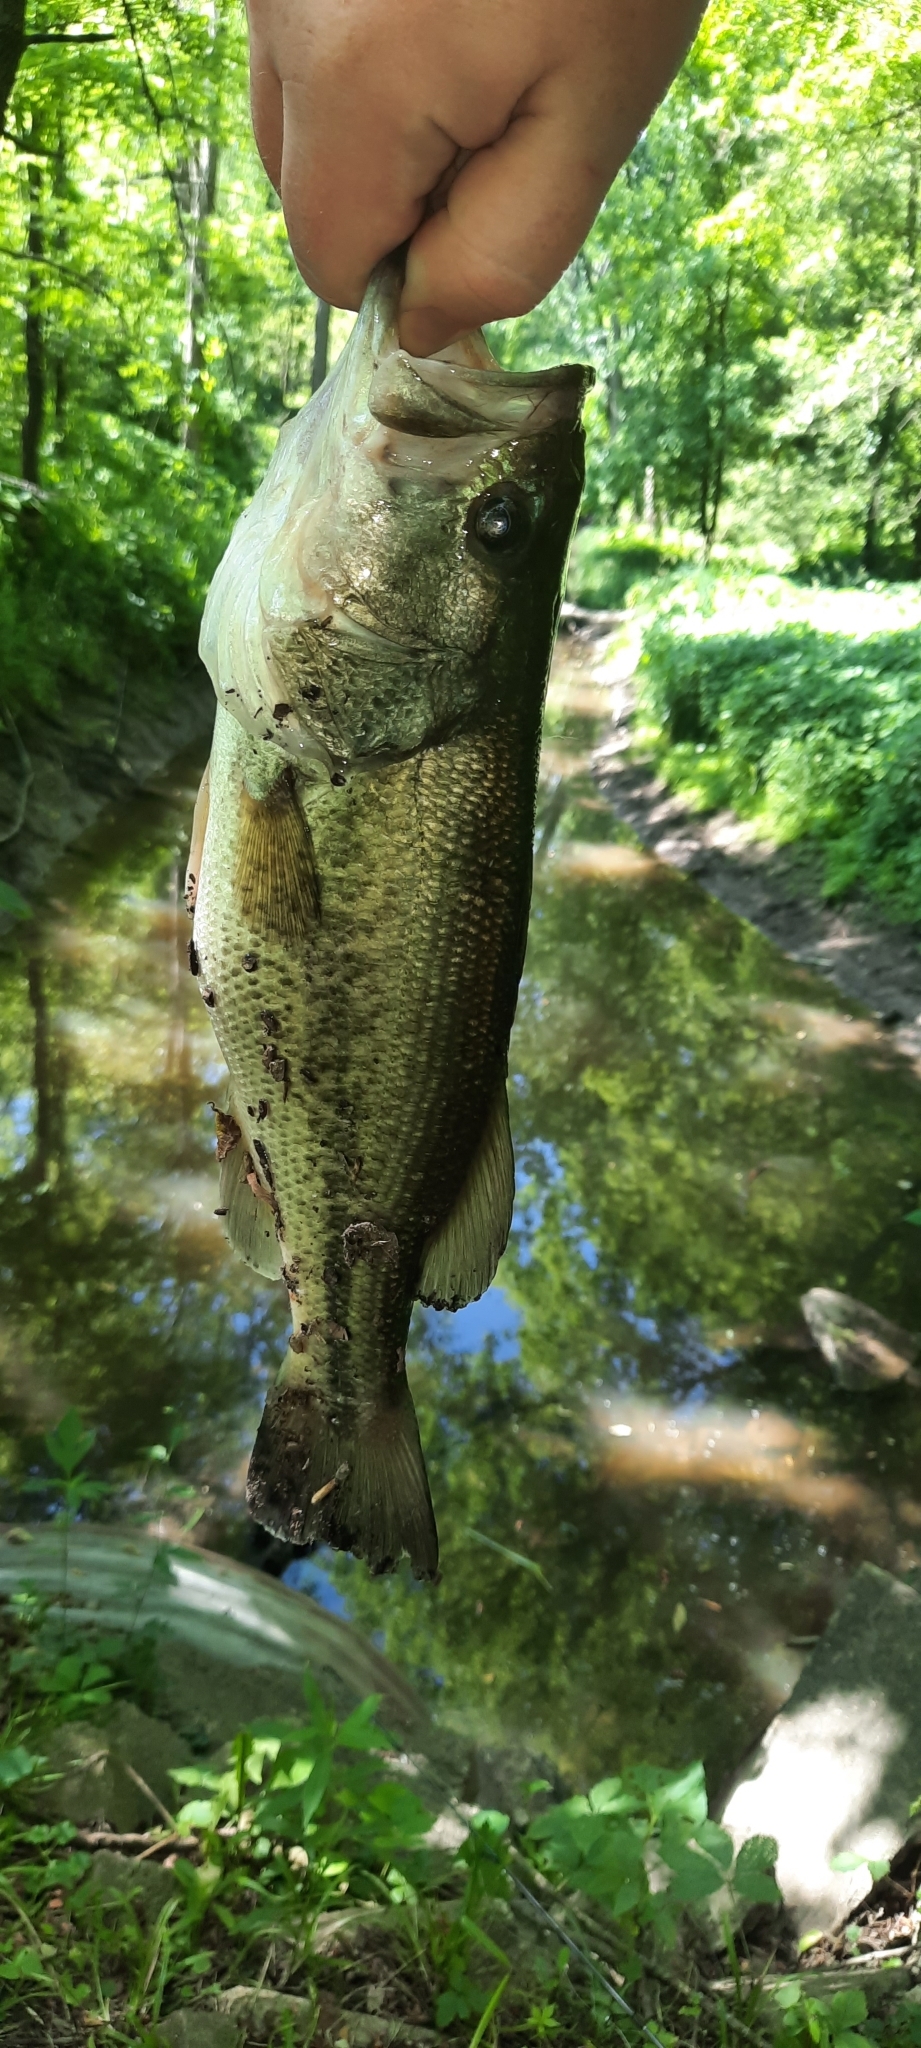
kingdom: Animalia
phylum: Chordata
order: Perciformes
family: Centrarchidae
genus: Micropterus
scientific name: Micropterus
